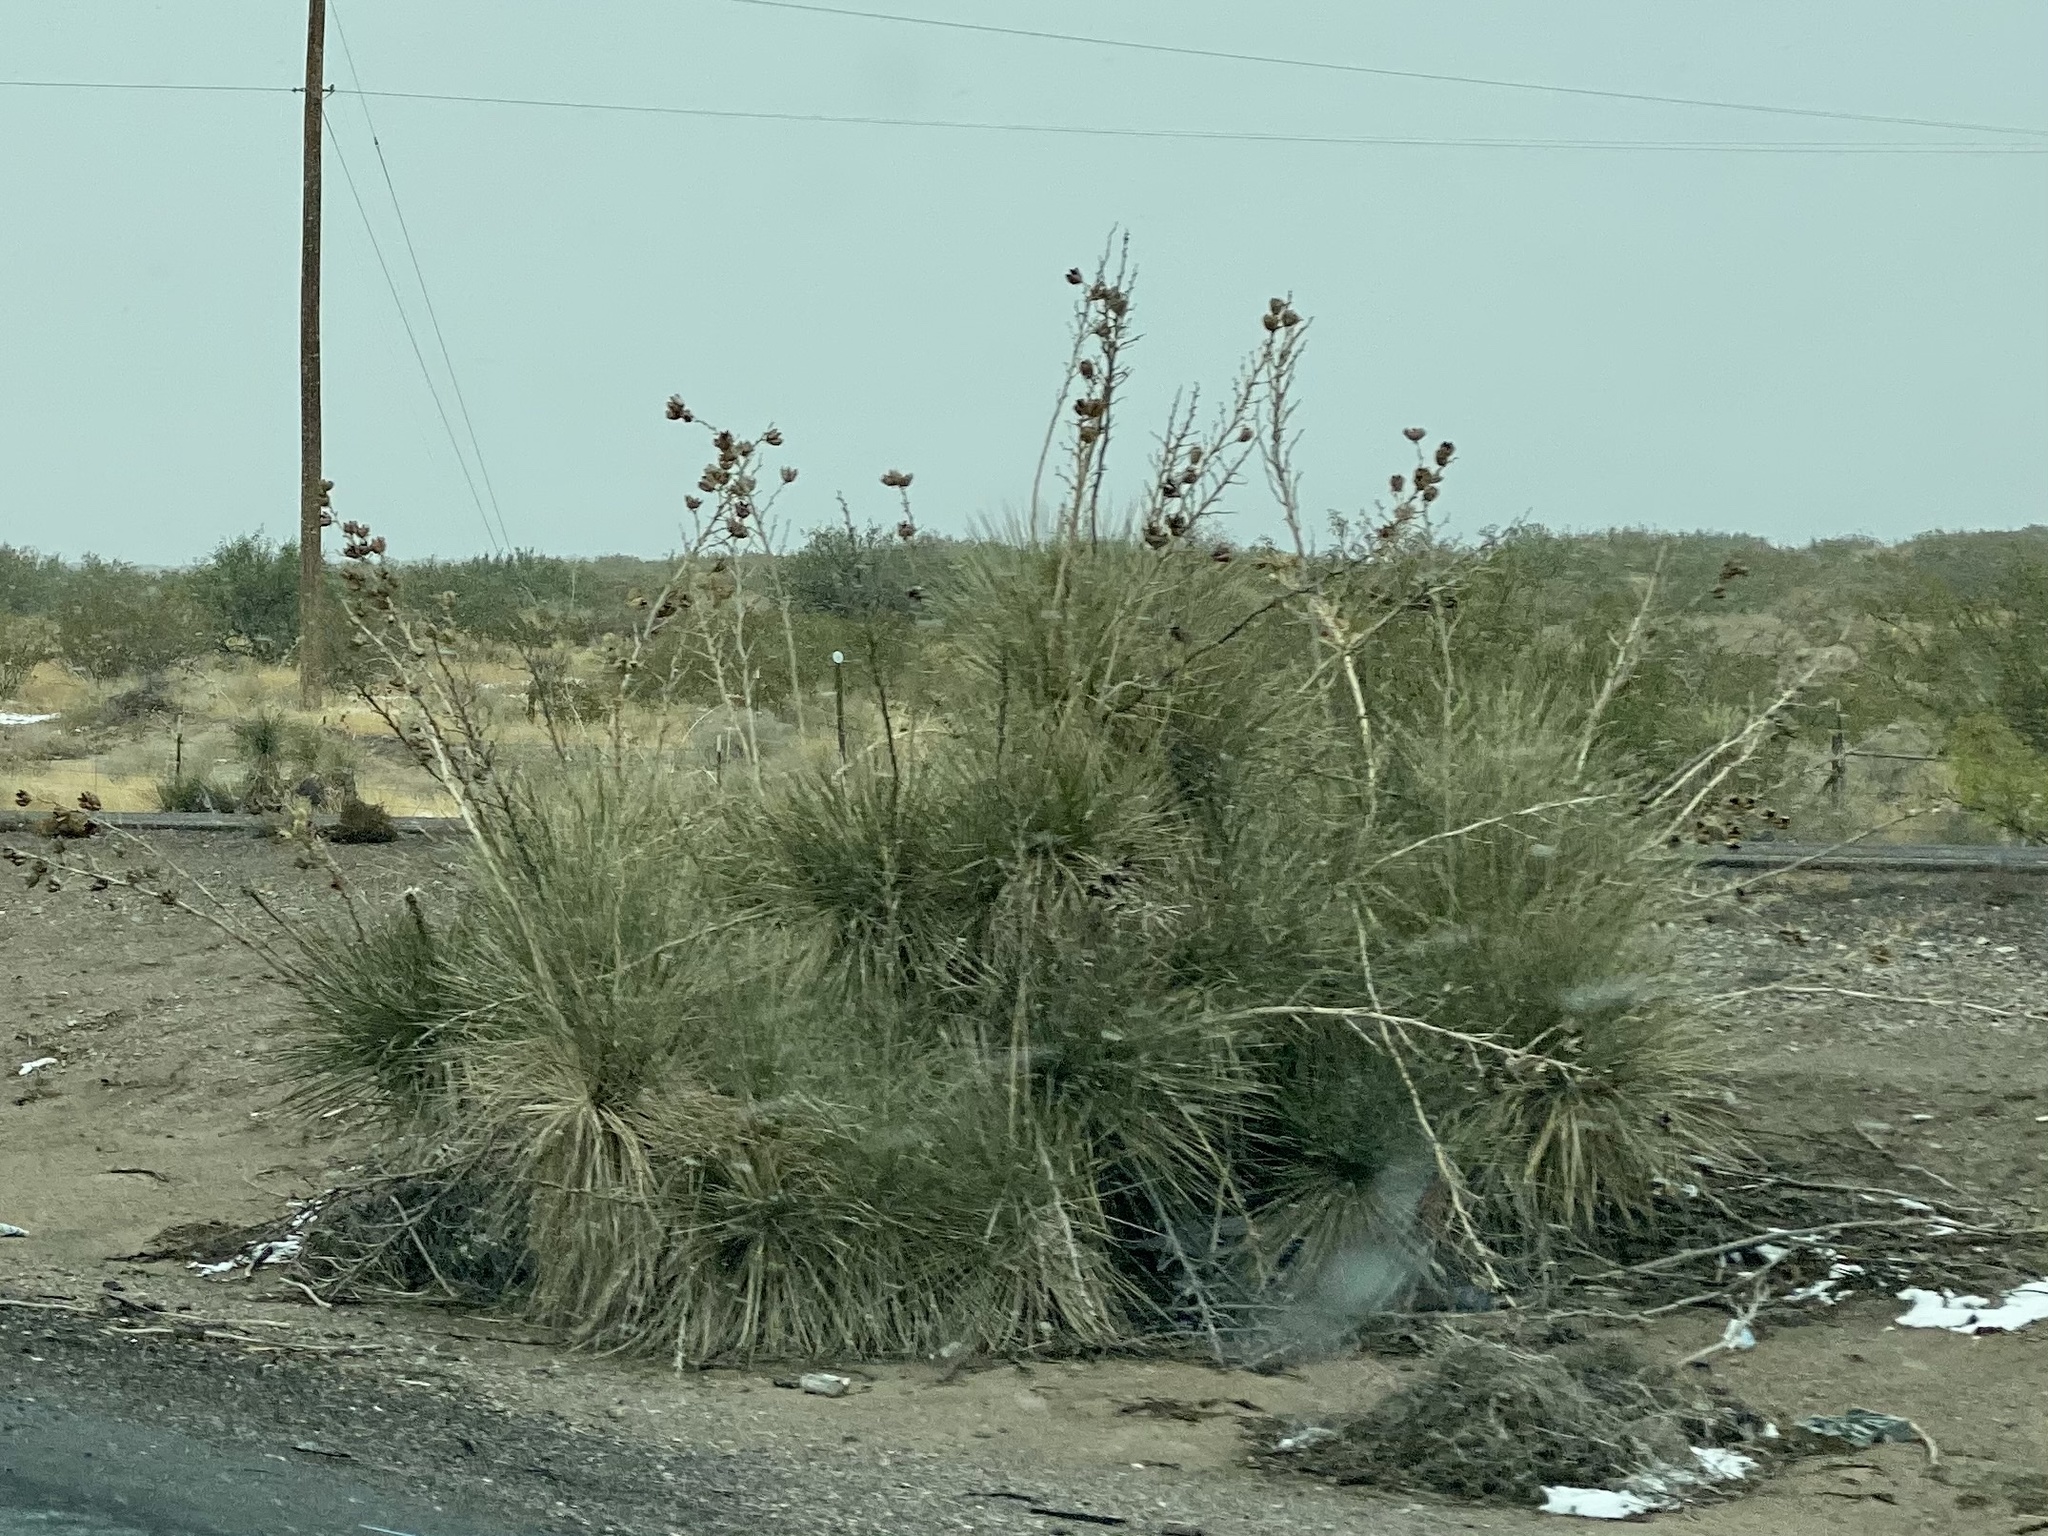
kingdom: Plantae
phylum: Tracheophyta
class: Liliopsida
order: Asparagales
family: Asparagaceae
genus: Yucca
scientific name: Yucca elata
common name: Palmella
